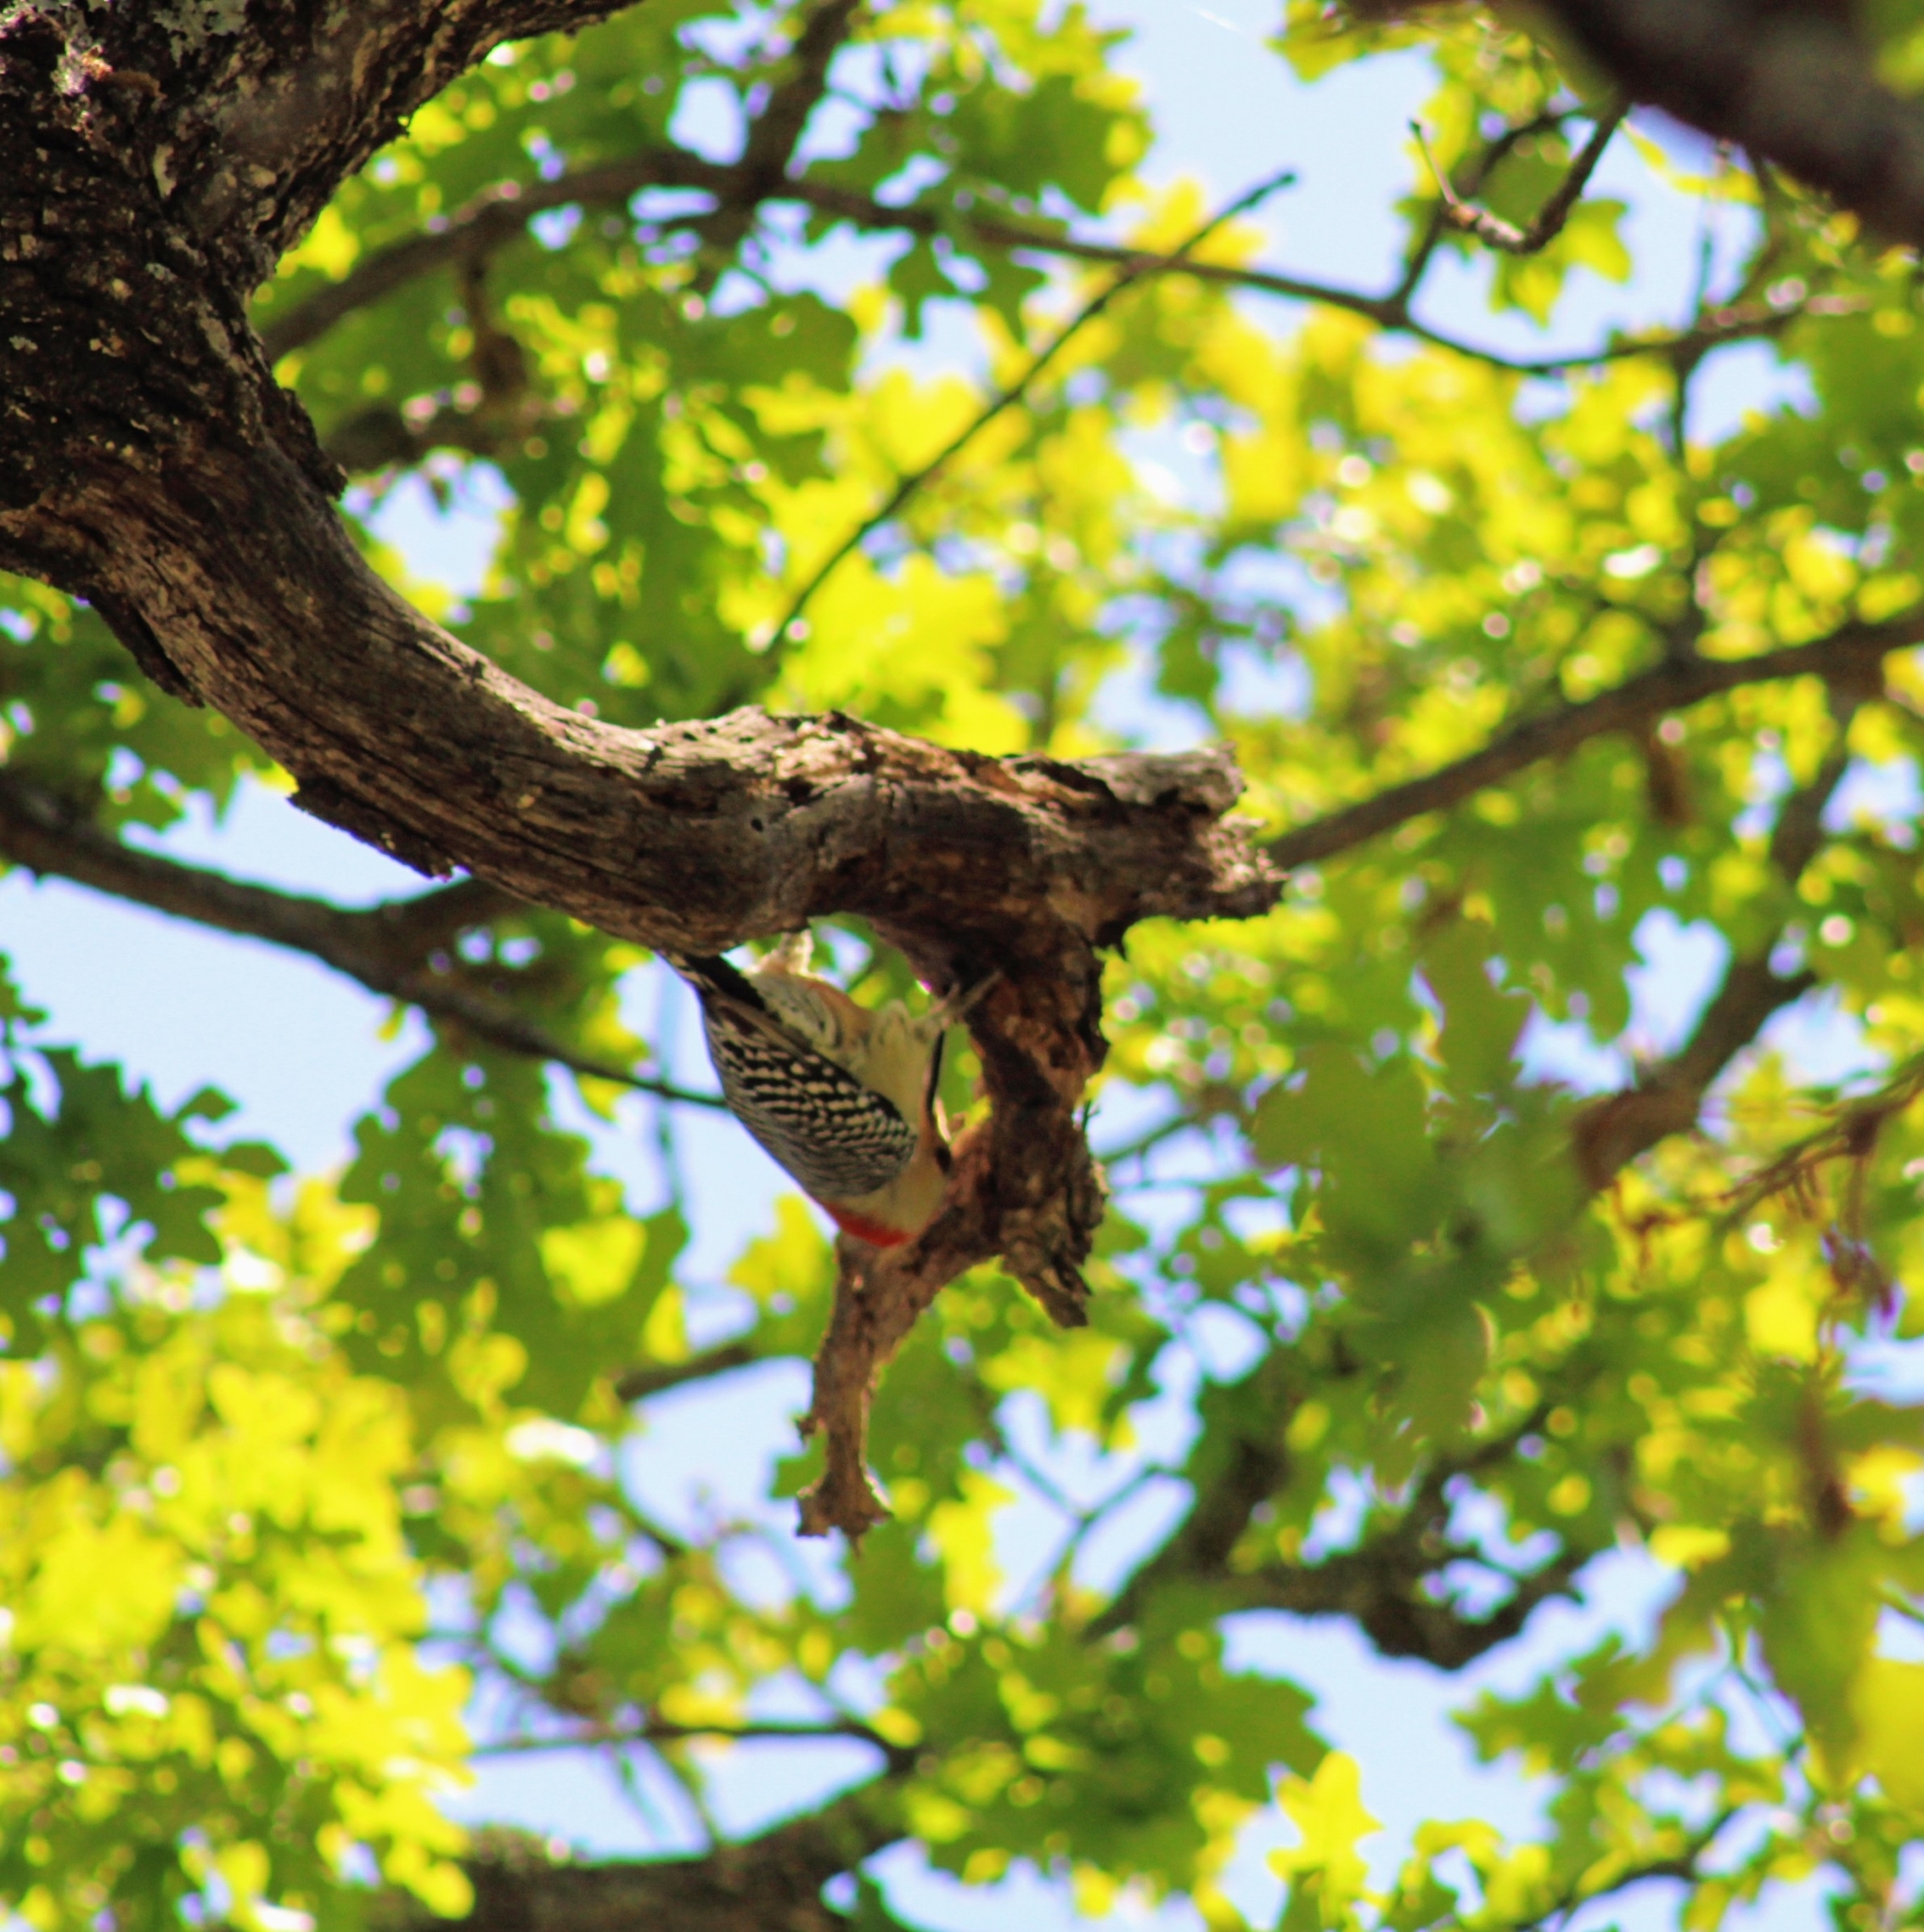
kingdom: Animalia
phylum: Chordata
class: Aves
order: Piciformes
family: Picidae
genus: Melanerpes
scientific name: Melanerpes carolinus
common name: Red-bellied woodpecker
